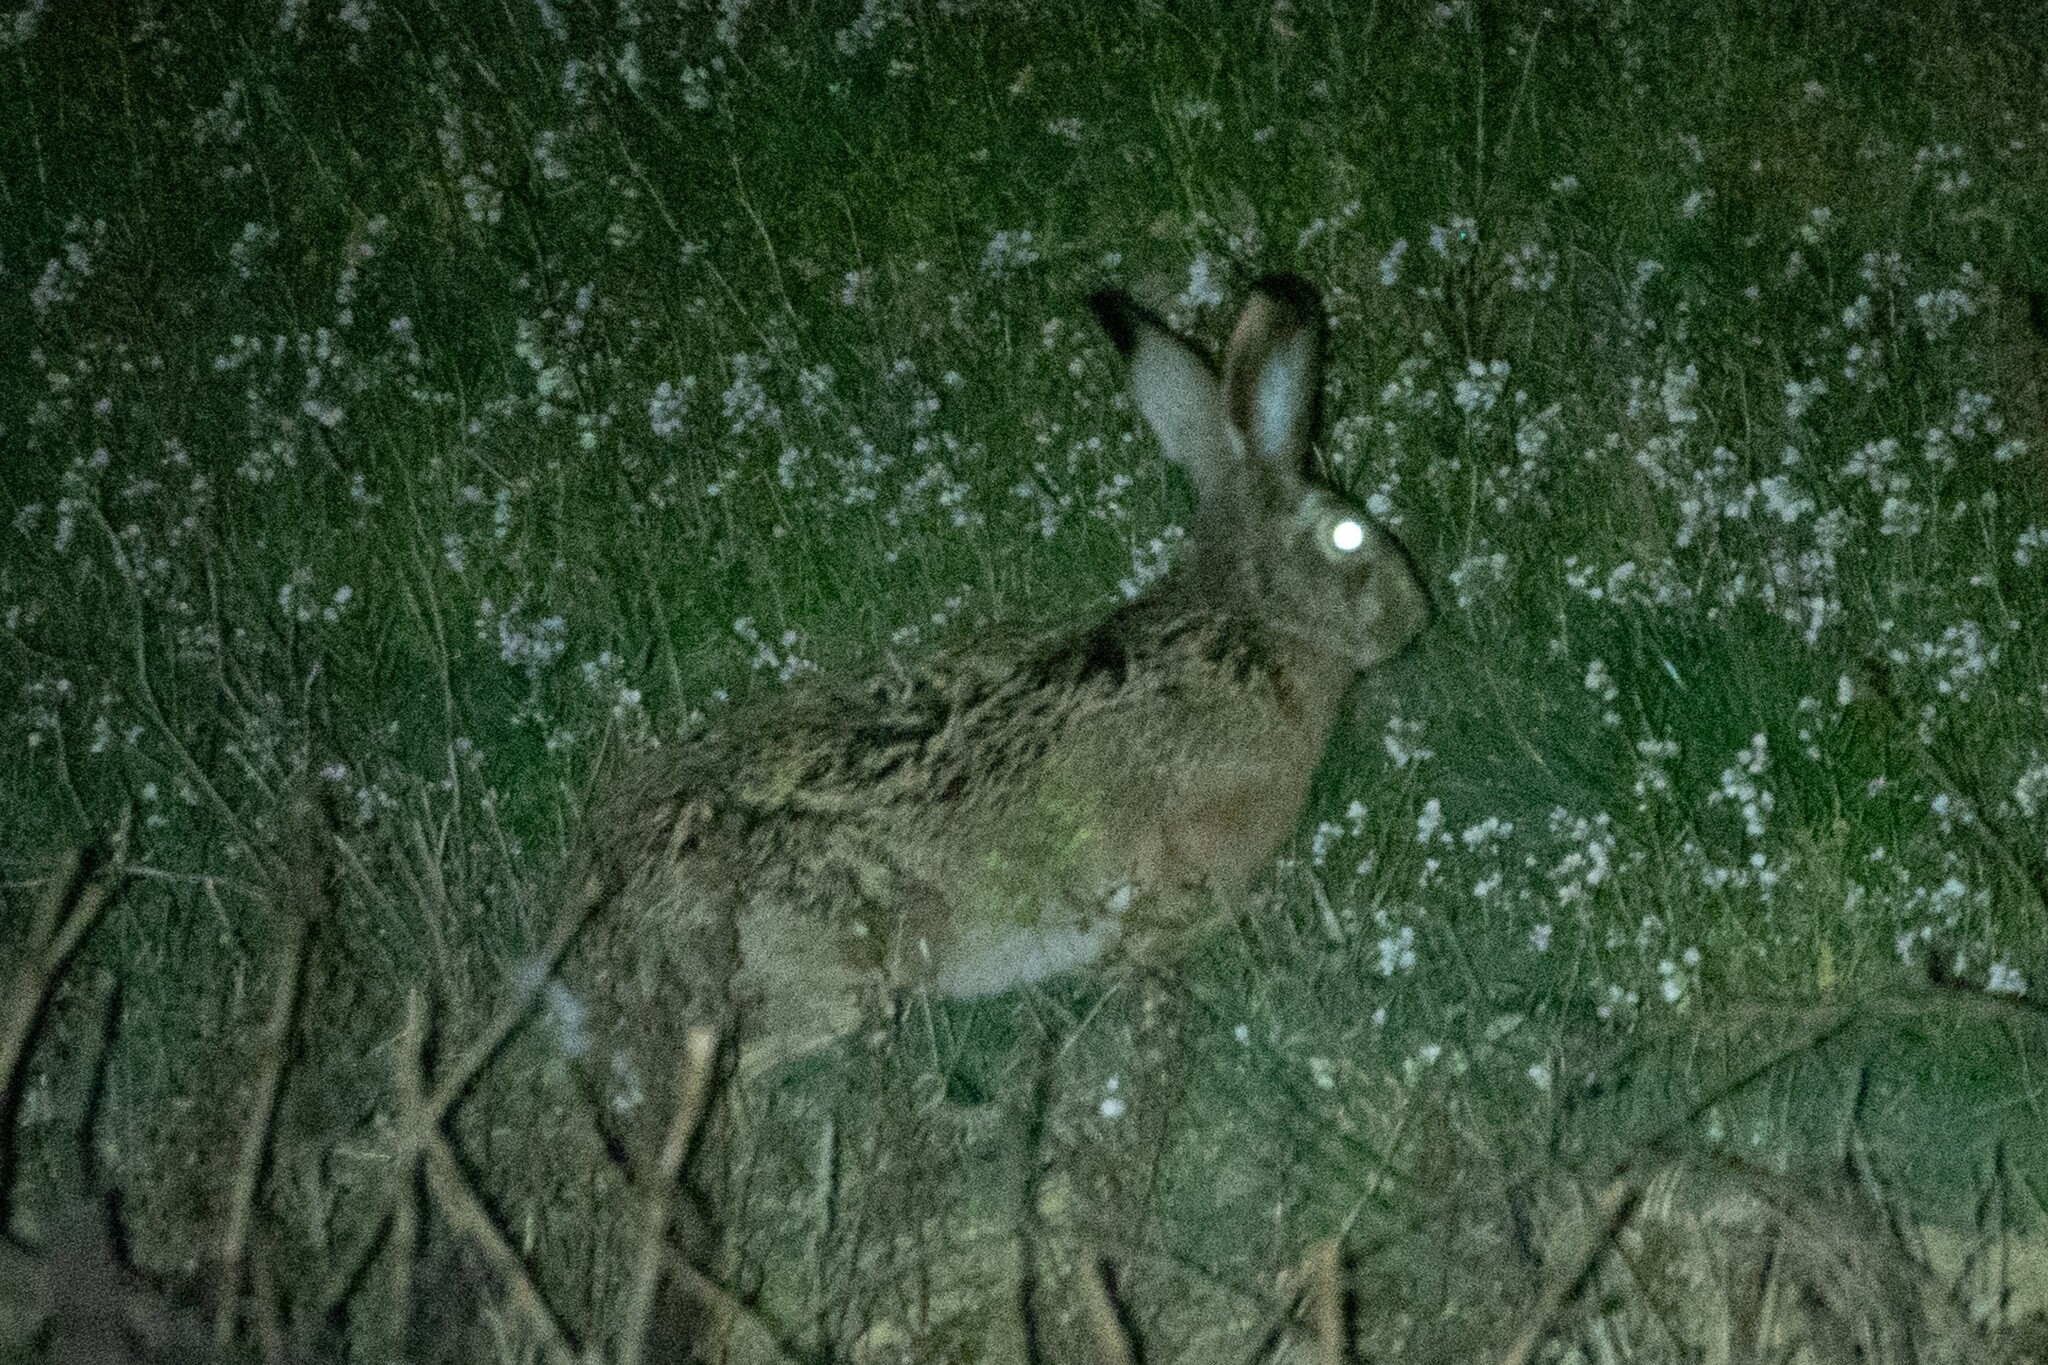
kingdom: Animalia
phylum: Chordata
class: Mammalia
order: Lagomorpha
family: Leporidae
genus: Lepus
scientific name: Lepus europaeus
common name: European hare
